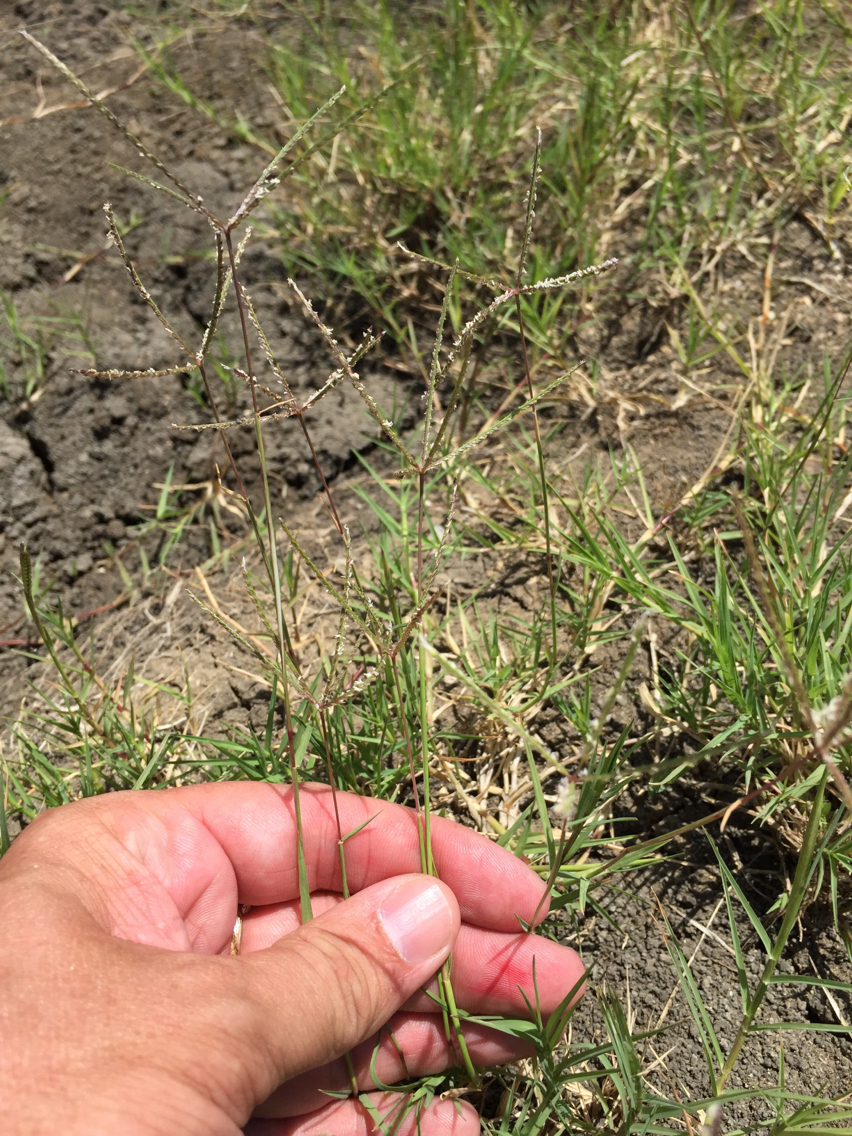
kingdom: Plantae
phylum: Tracheophyta
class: Liliopsida
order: Poales
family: Poaceae
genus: Cynodon
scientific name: Cynodon dactylon
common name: Bermuda grass
